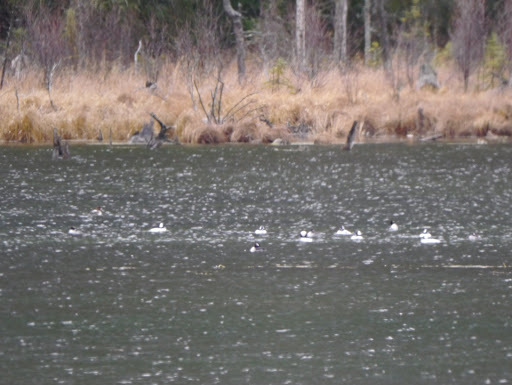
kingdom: Animalia
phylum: Chordata
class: Aves
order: Anseriformes
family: Anatidae
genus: Bucephala
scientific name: Bucephala albeola
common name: Bufflehead
